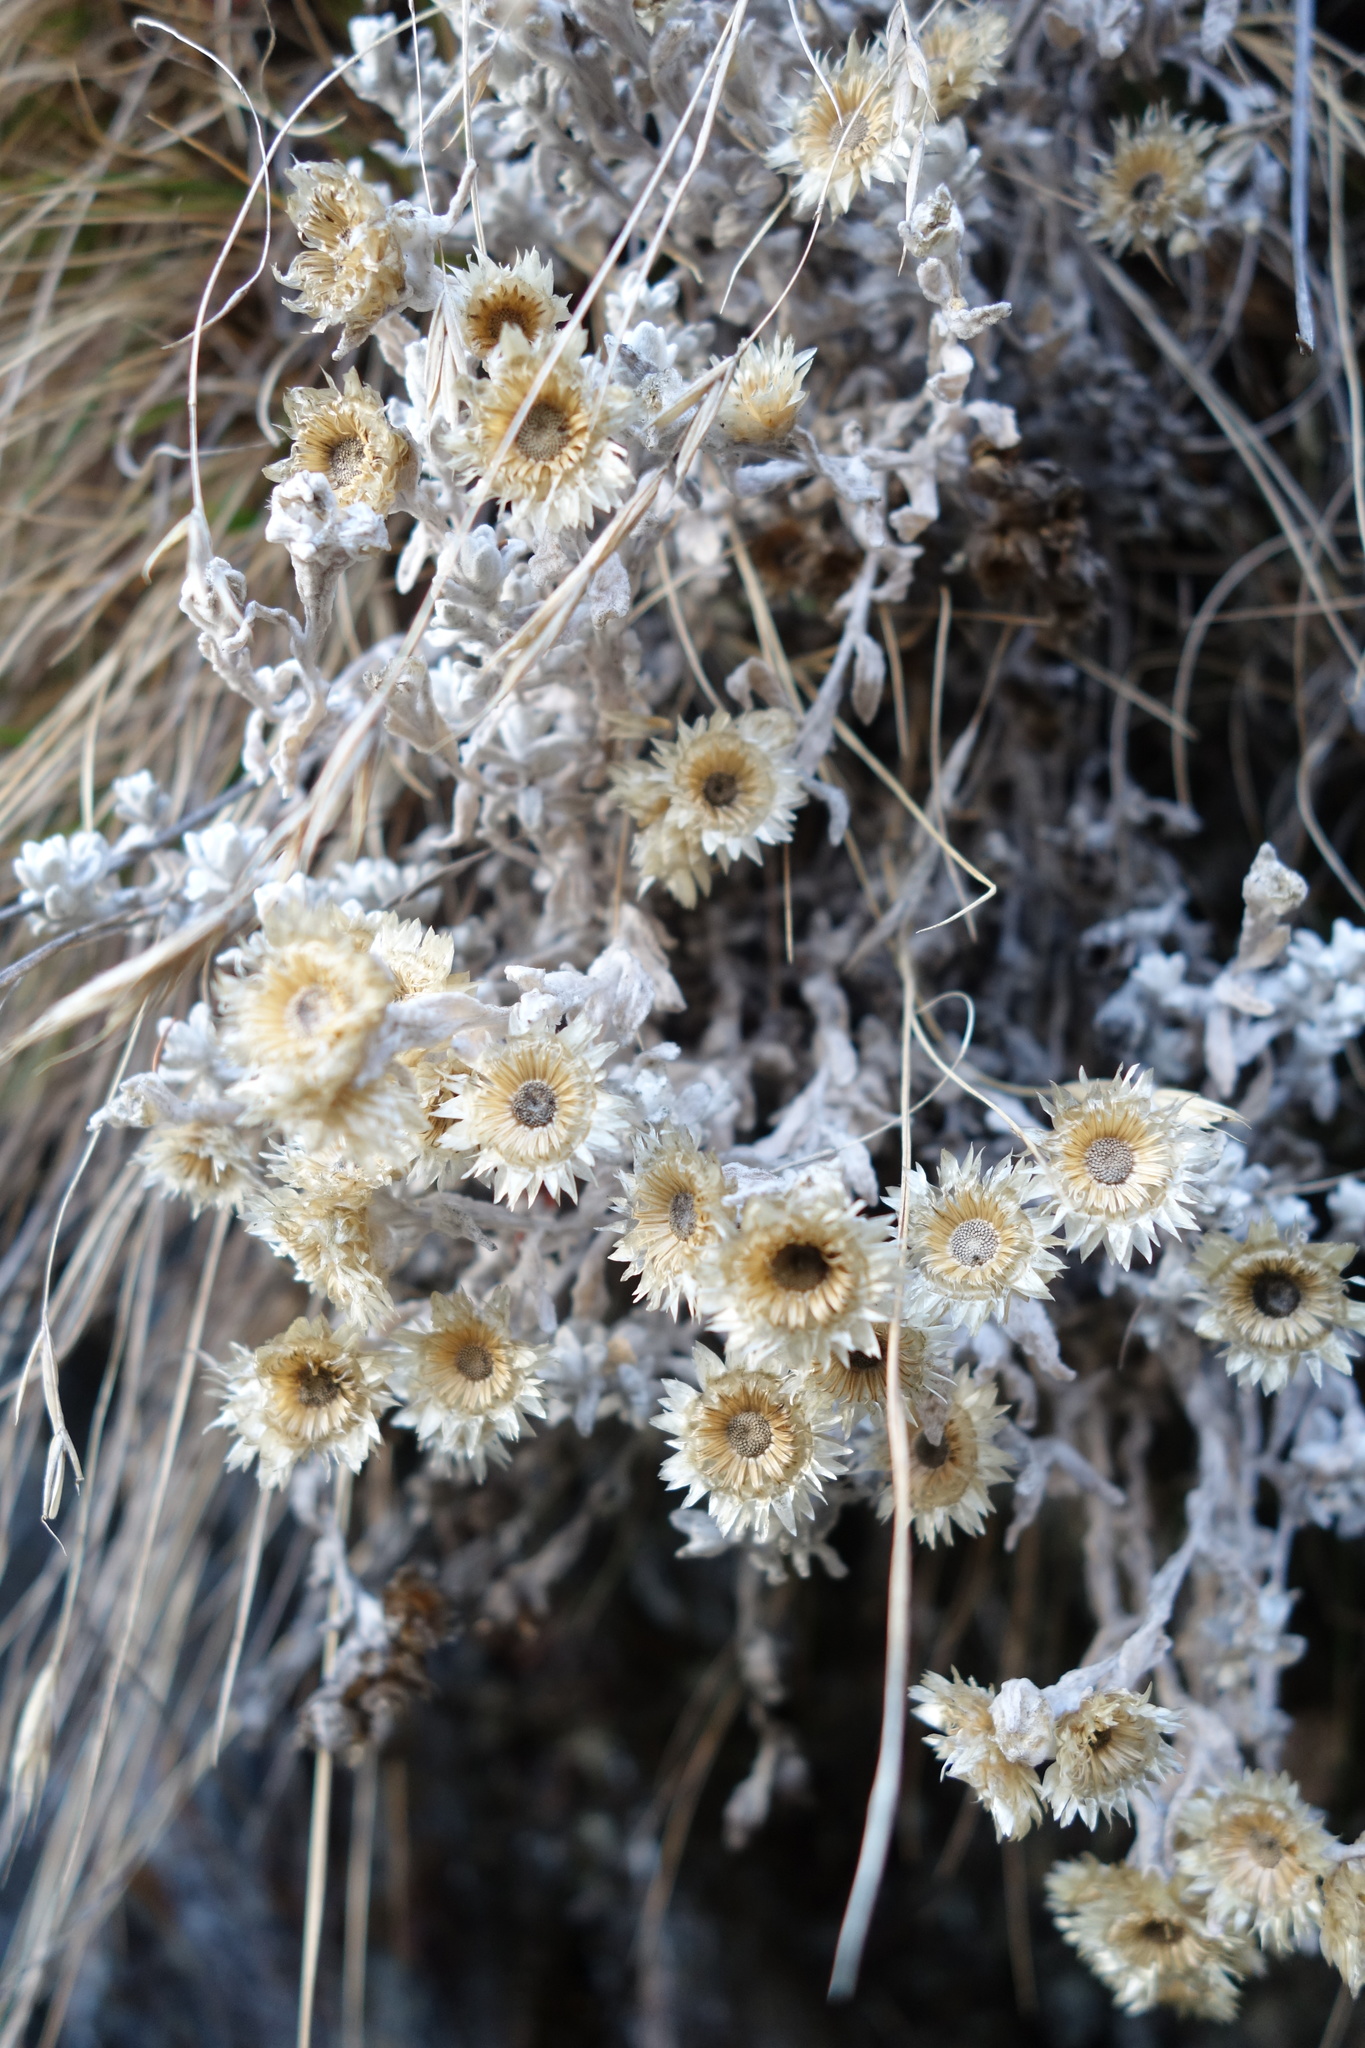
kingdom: Plantae
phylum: Tracheophyta
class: Magnoliopsida
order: Asterales
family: Asteraceae
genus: Anaphalis
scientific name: Anaphalis nepalensis
